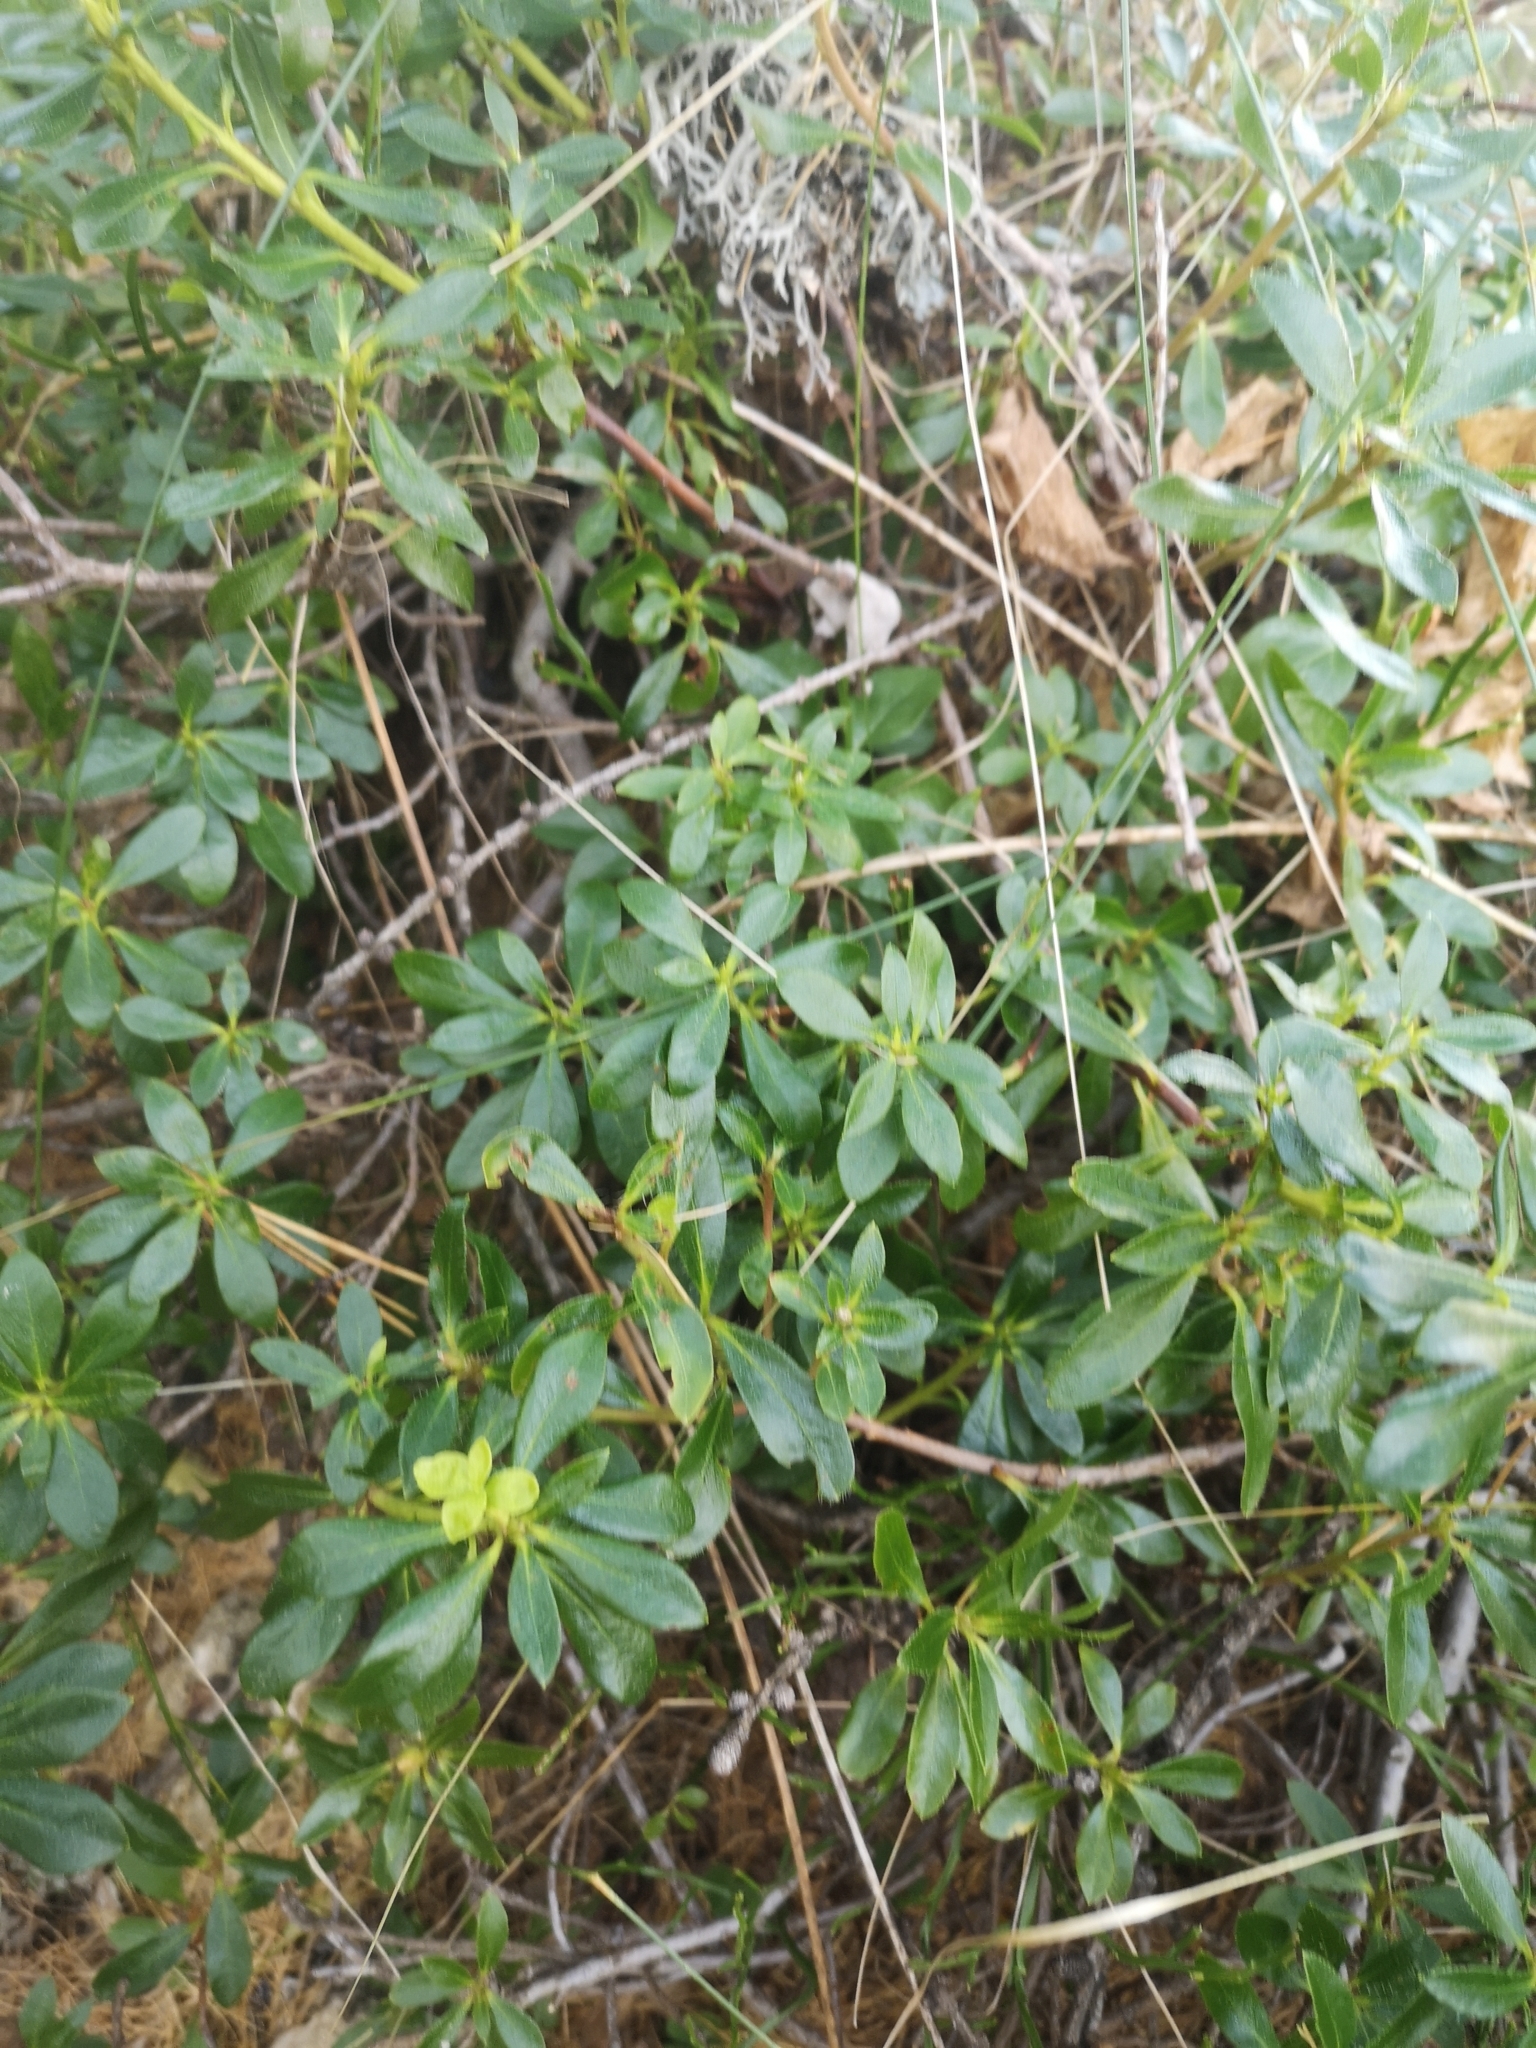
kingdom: Plantae
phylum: Tracheophyta
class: Magnoliopsida
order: Ericales
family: Ericaceae
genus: Rhododendron
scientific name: Rhododendron hirsutum
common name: Hairy alpenrose
